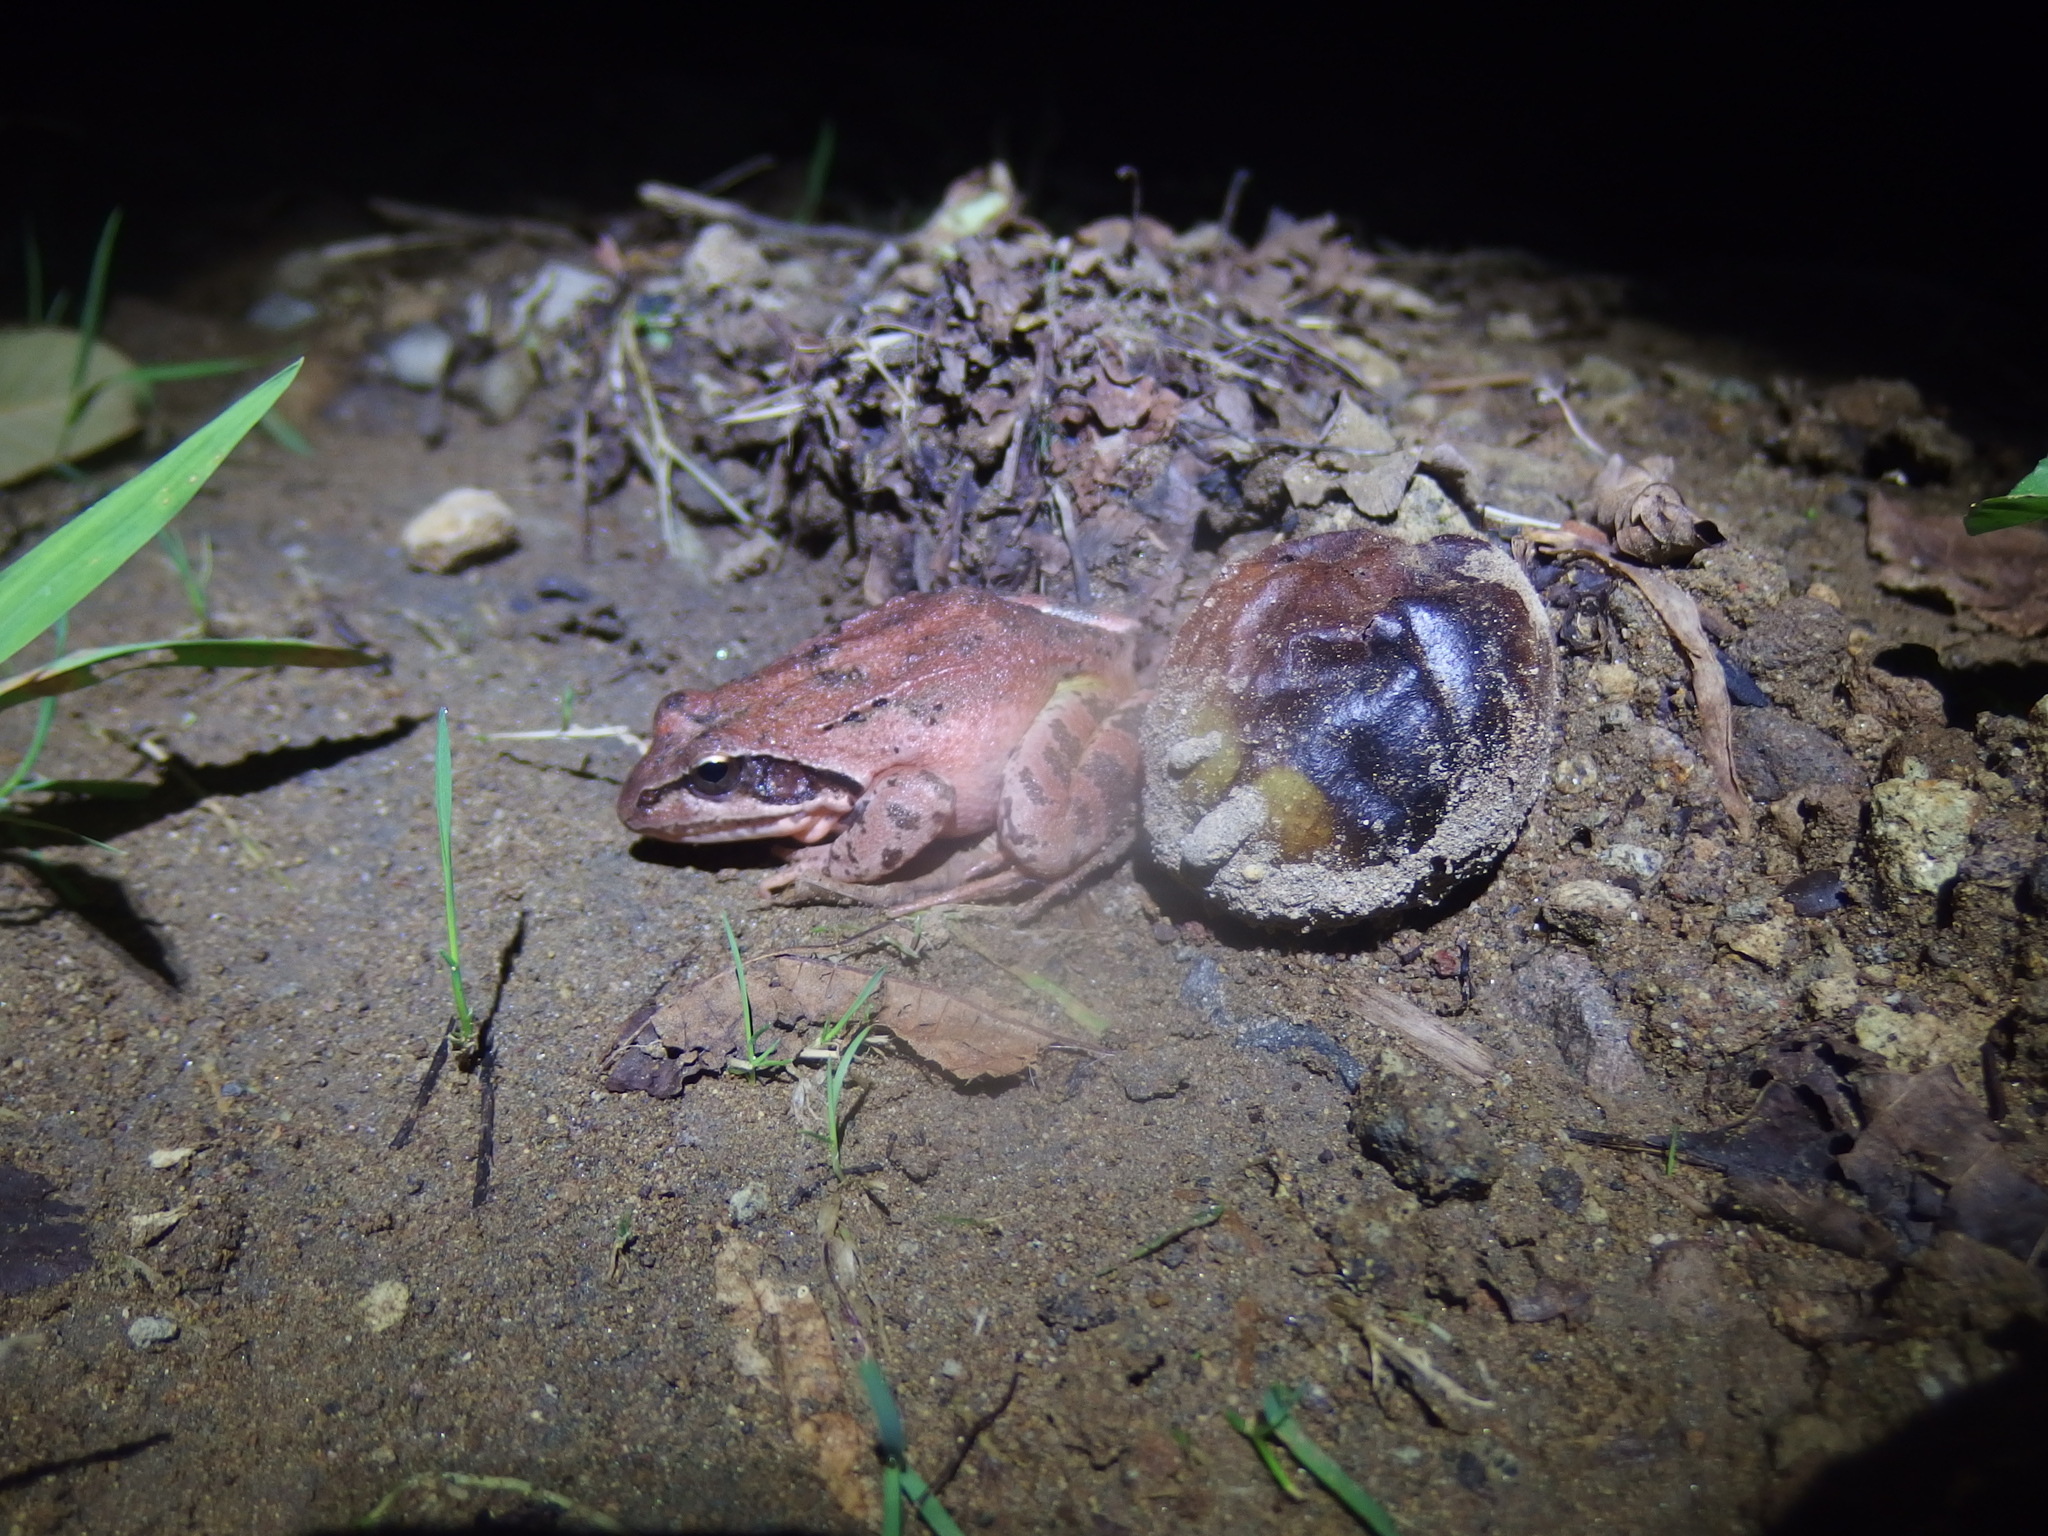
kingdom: Animalia
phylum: Chordata
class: Amphibia
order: Anura
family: Ranidae
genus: Rana
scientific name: Rana macrocnemis
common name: Banded frog
